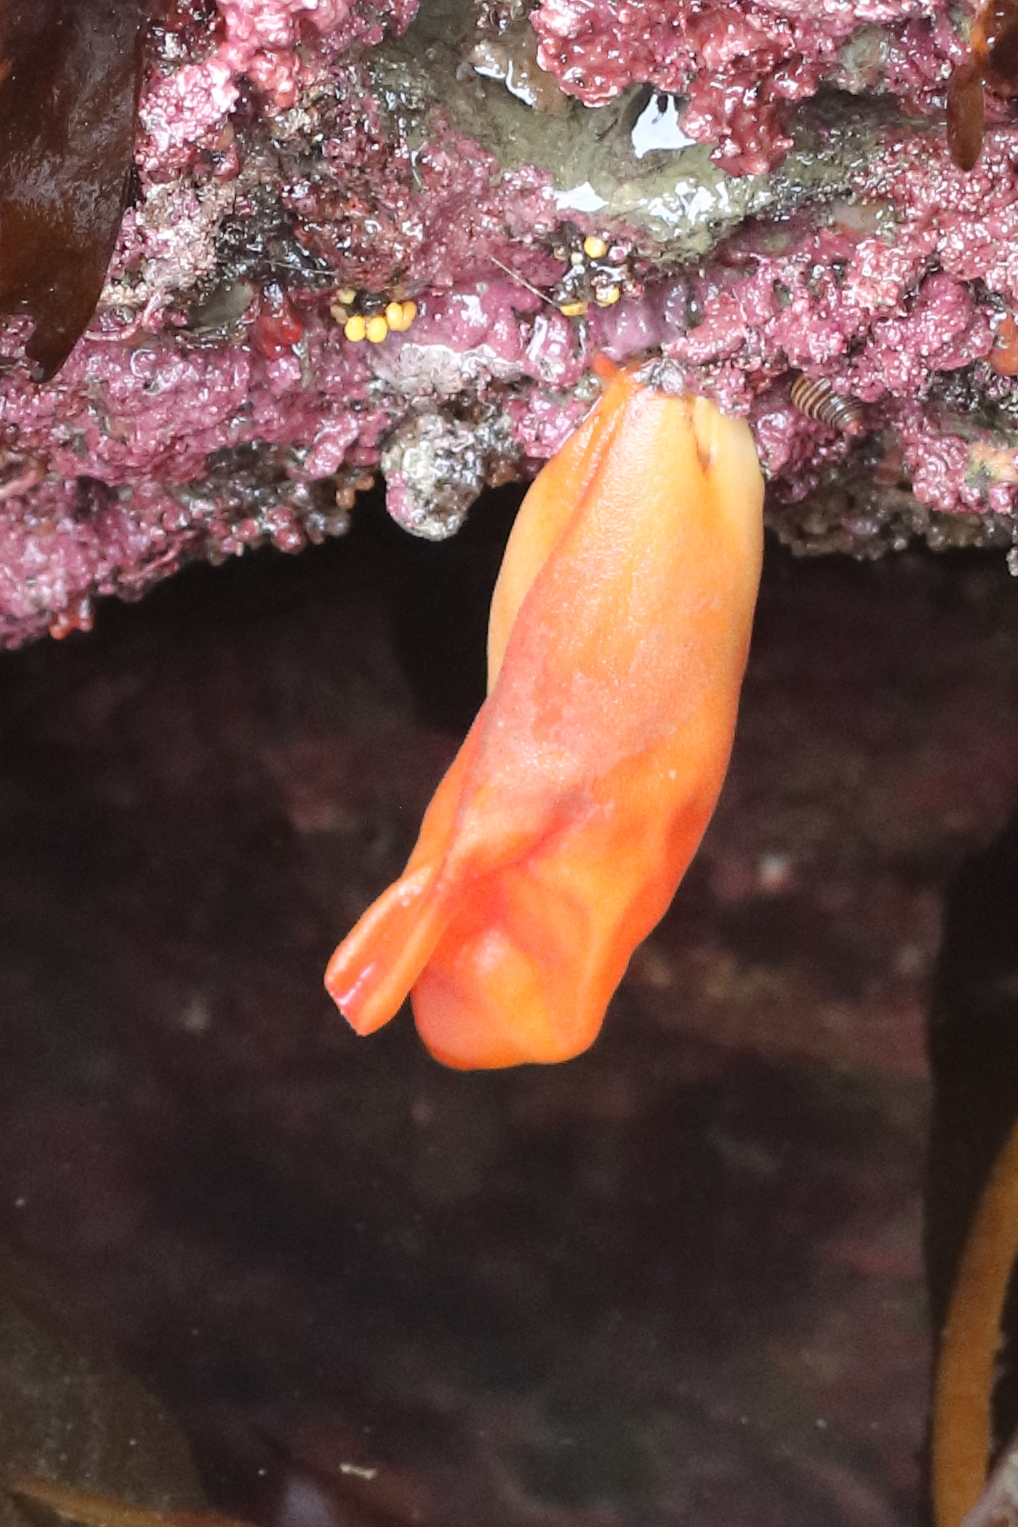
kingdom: Animalia
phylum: Chordata
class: Ascidiacea
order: Stolidobranchia
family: Pyuridae
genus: Halocynthia
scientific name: Halocynthia aurantium
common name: Sea peach
